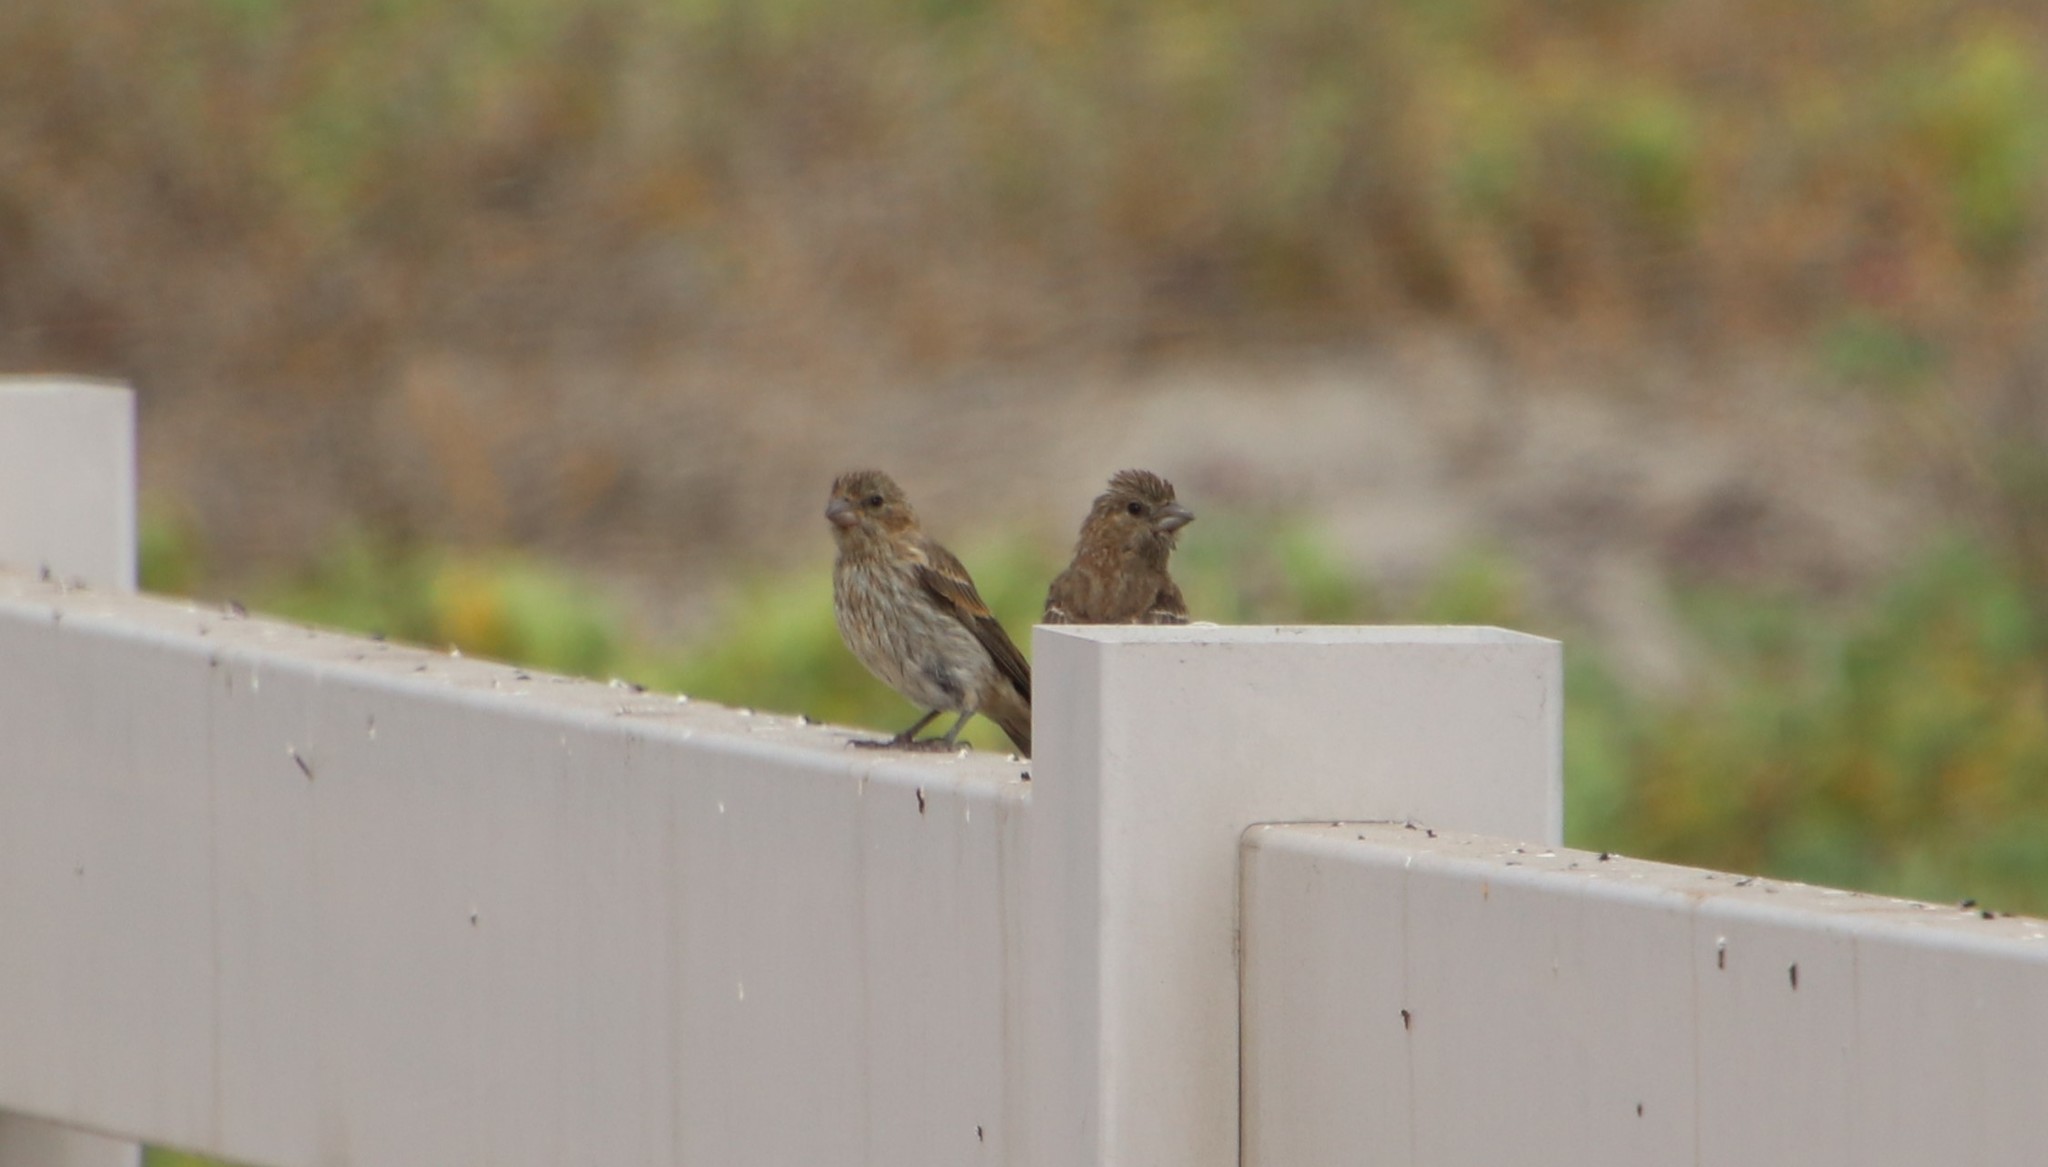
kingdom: Animalia
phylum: Chordata
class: Aves
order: Passeriformes
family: Fringillidae
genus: Haemorhous
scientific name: Haemorhous mexicanus
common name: House finch
